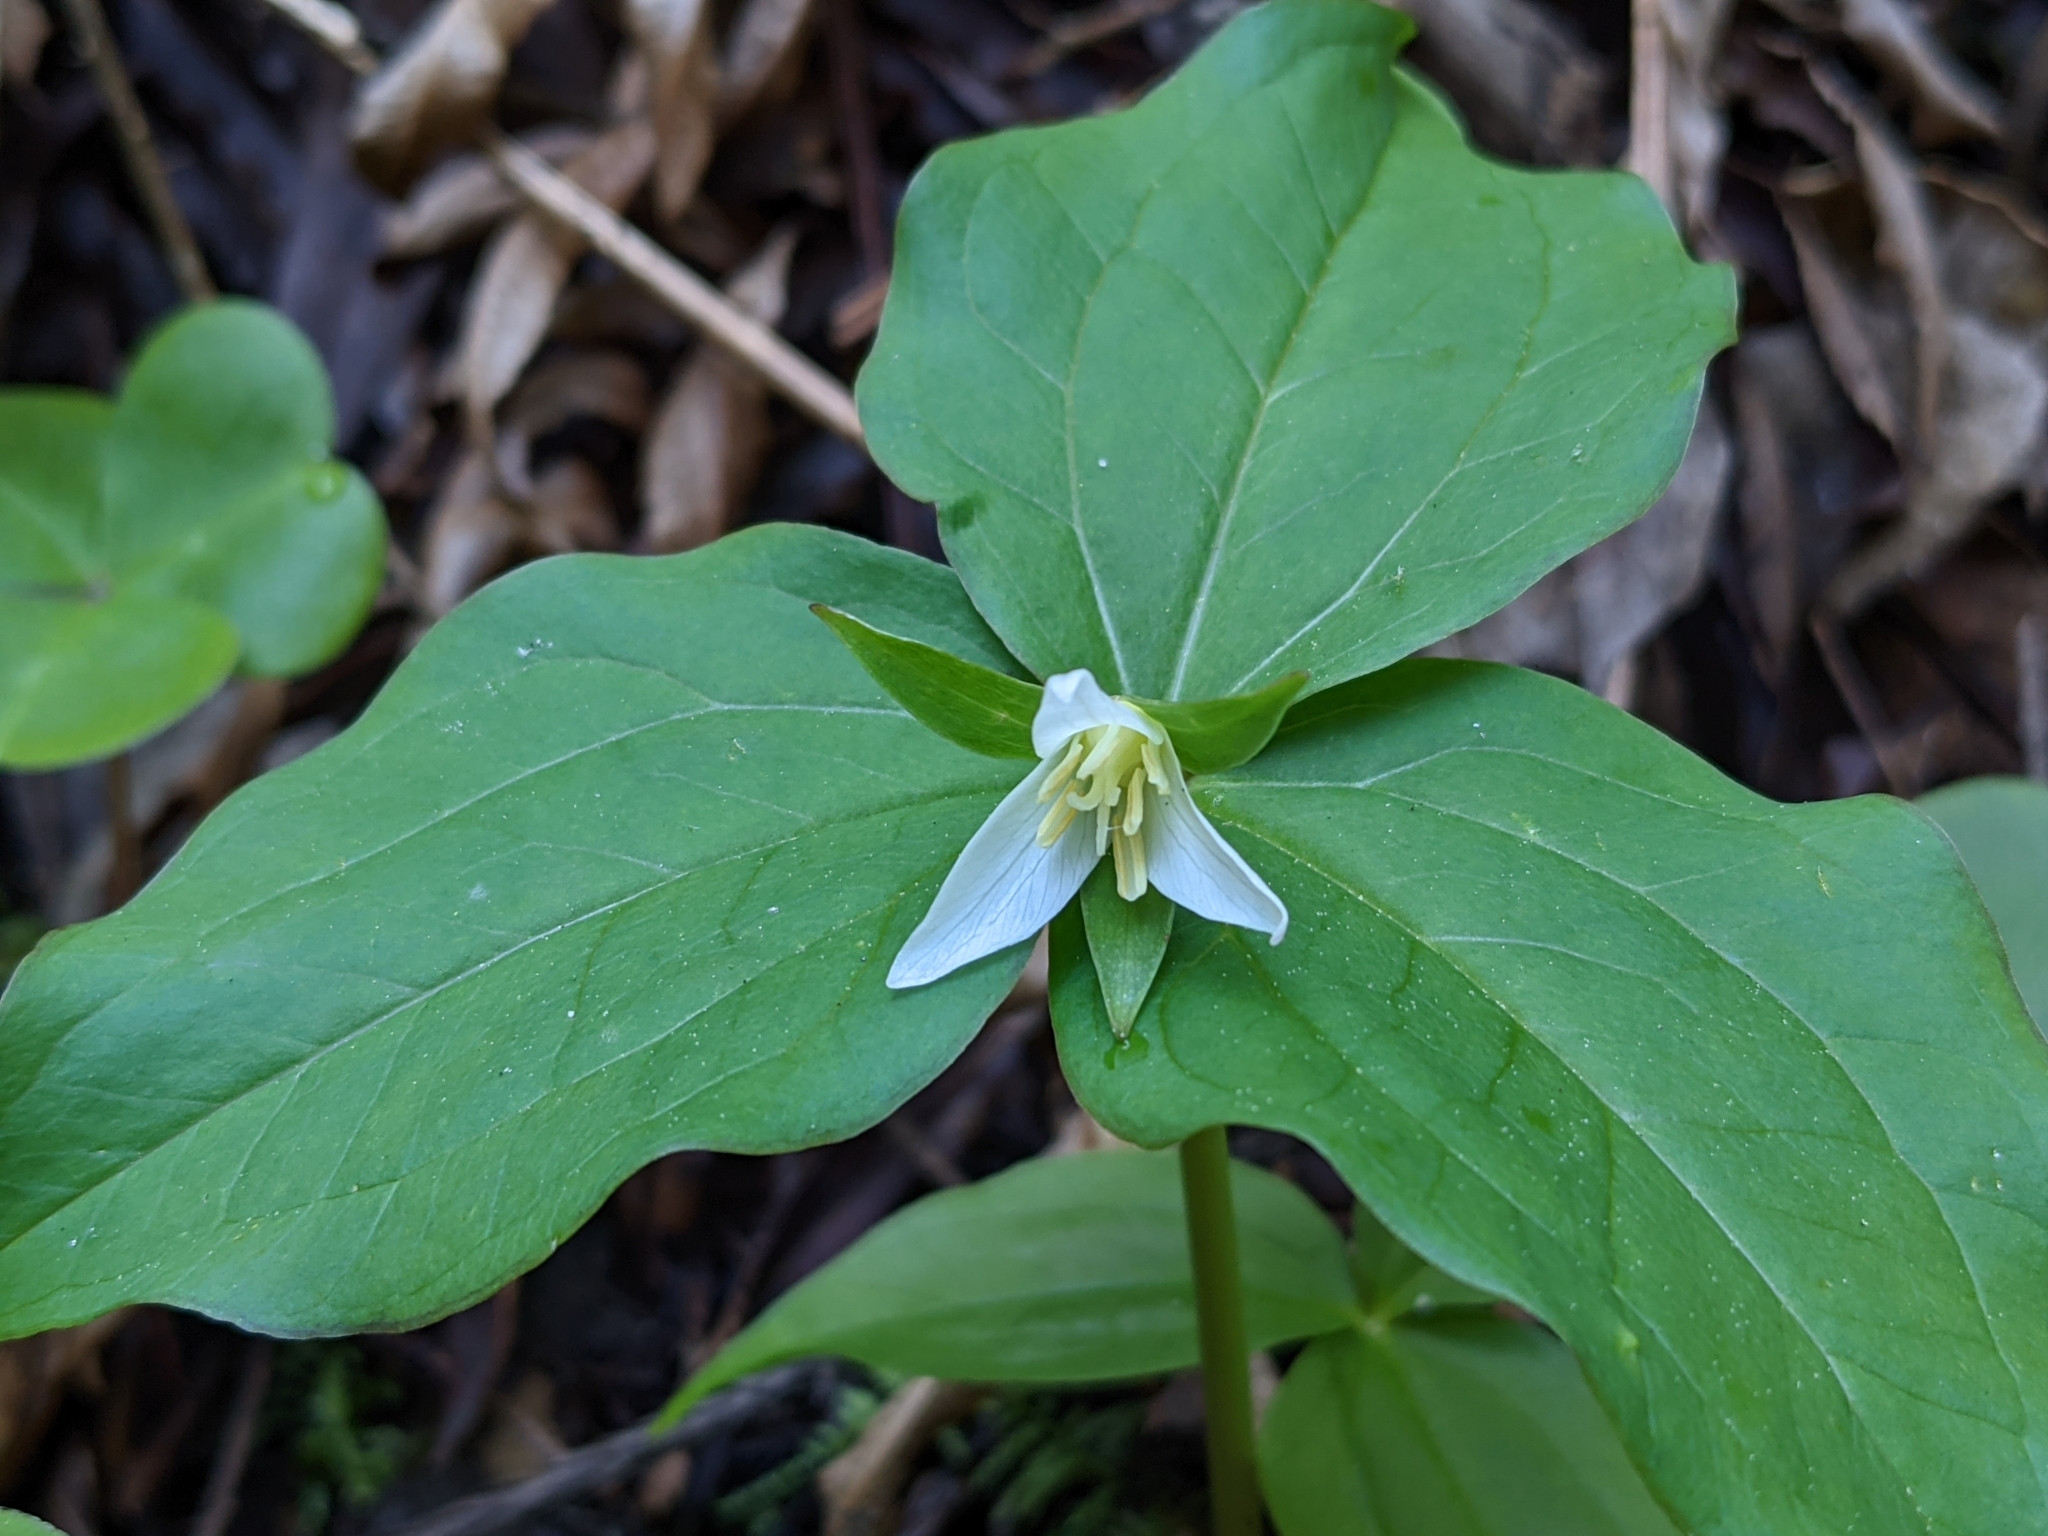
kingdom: Plantae
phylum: Tracheophyta
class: Liliopsida
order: Liliales
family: Melanthiaceae
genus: Trillium
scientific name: Trillium ovatum
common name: Pacific trillium
